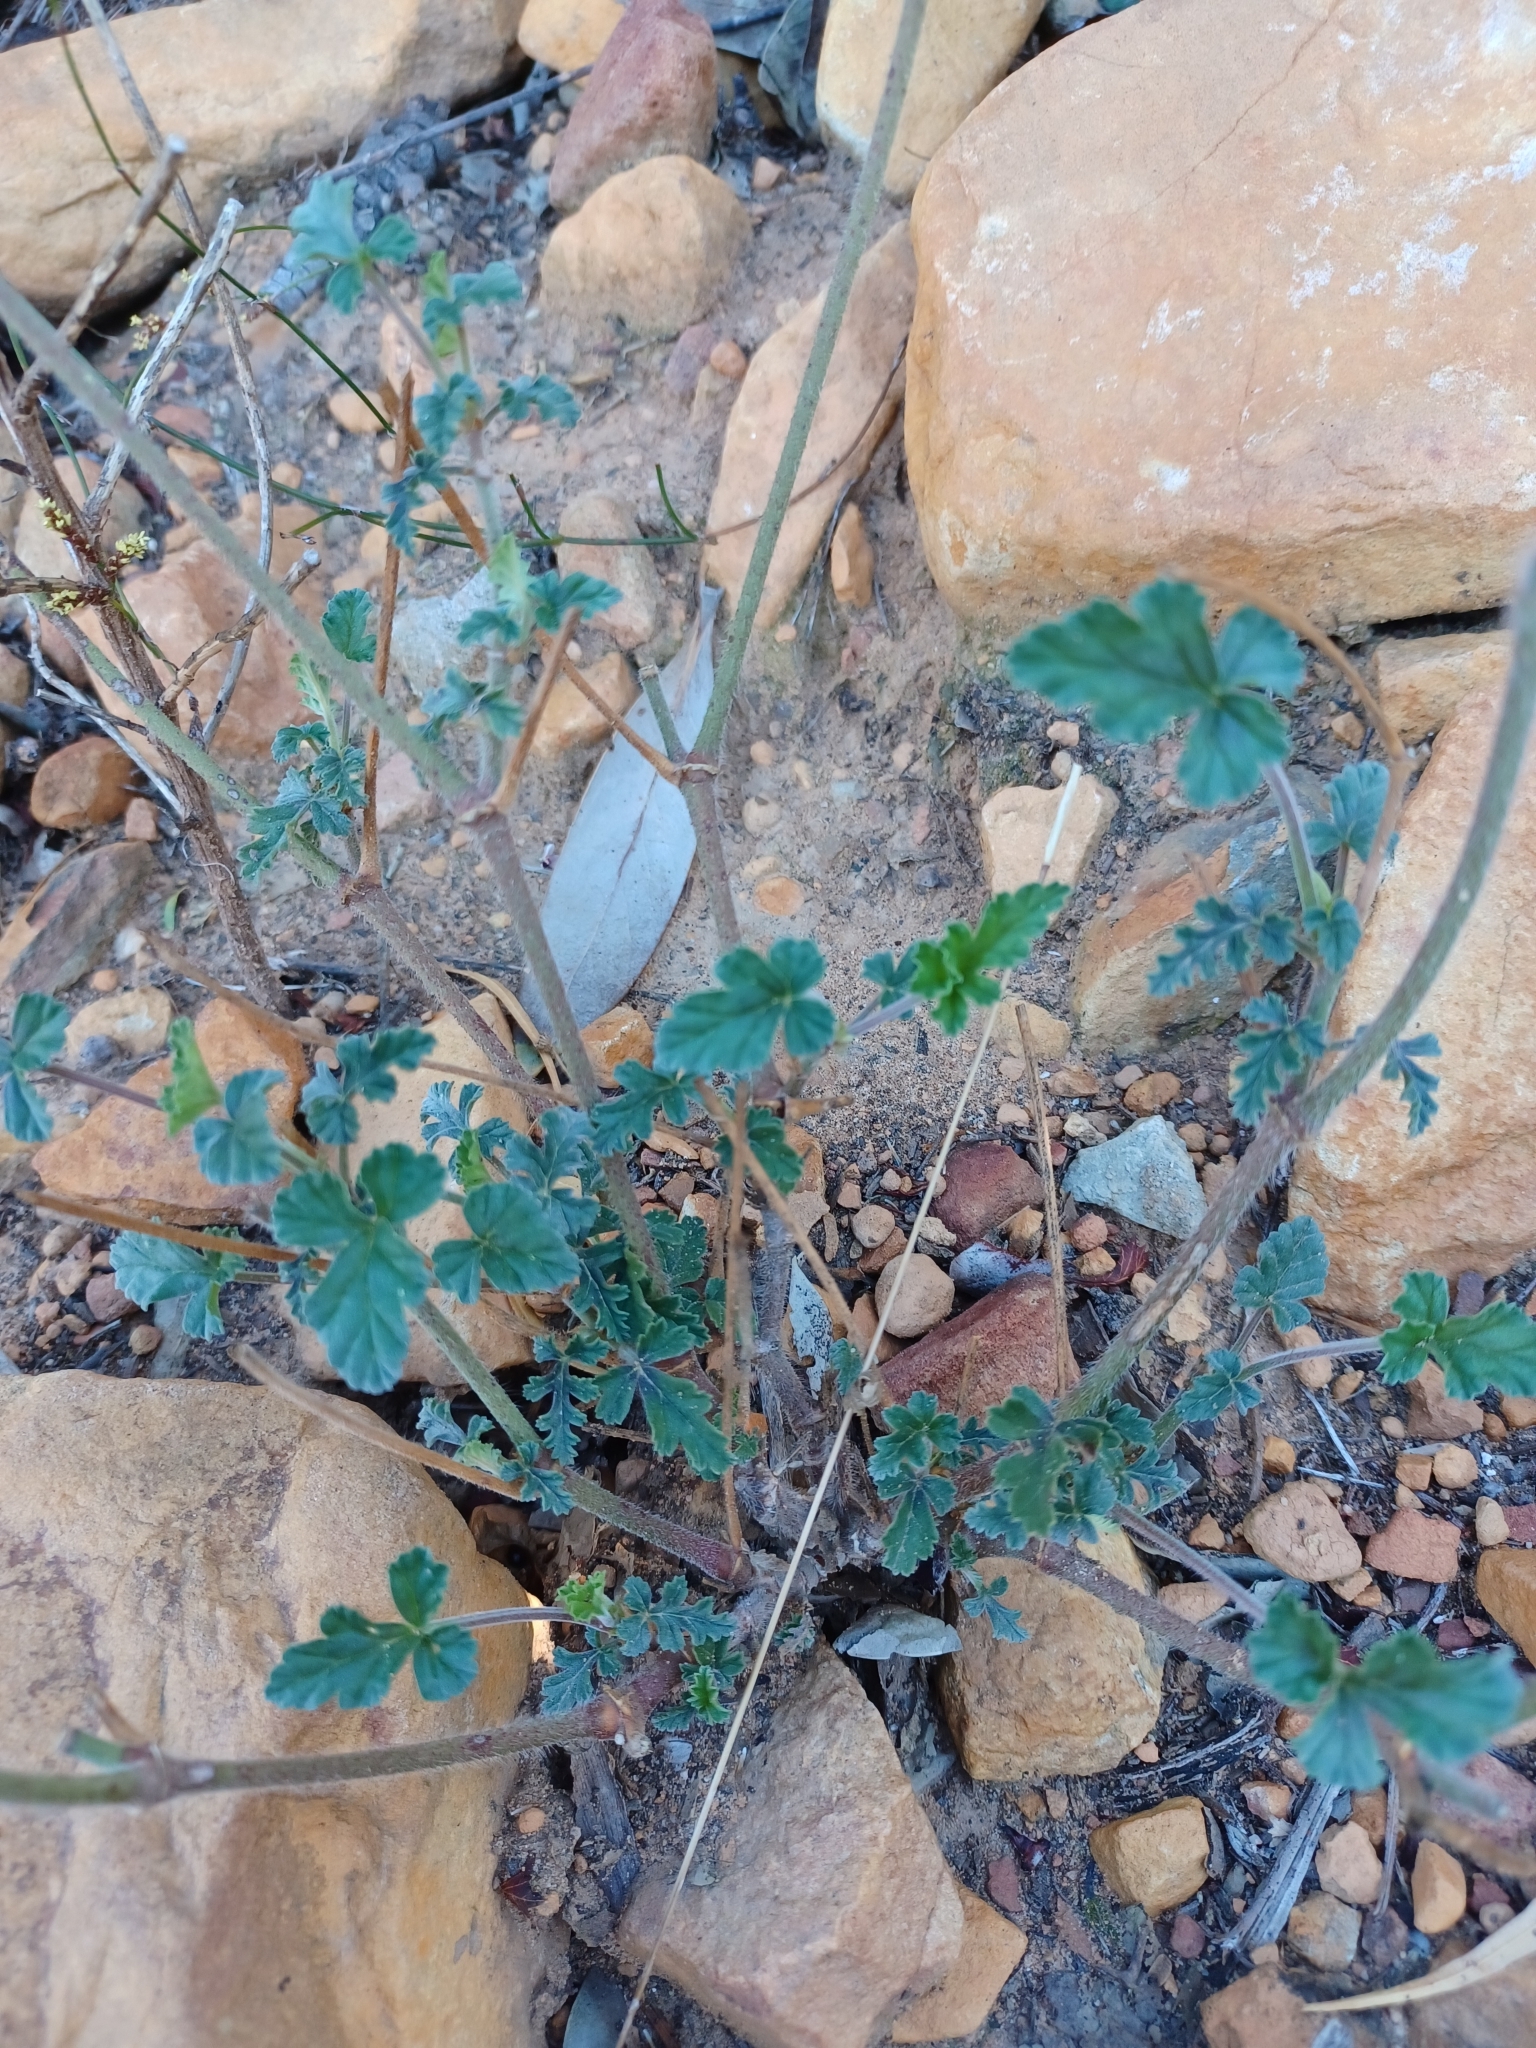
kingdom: Plantae
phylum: Tracheophyta
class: Magnoliopsida
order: Geraniales
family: Geraniaceae
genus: Pelargonium
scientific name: Pelargonium candicans
